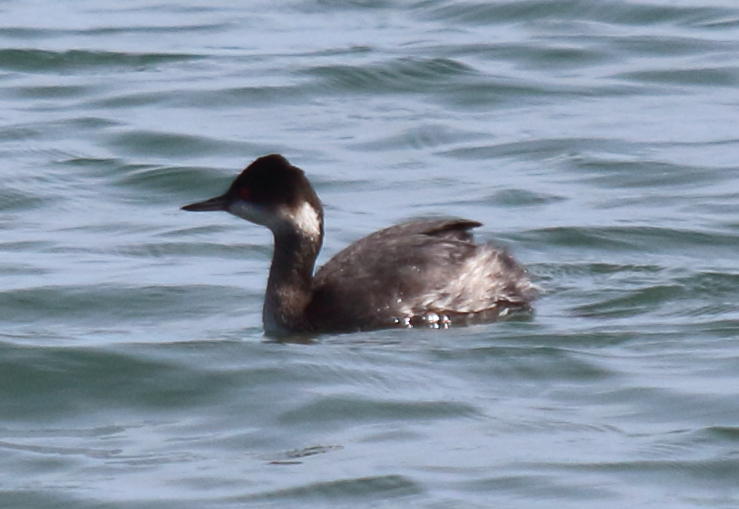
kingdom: Animalia
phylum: Chordata
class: Aves
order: Podicipediformes
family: Podicipedidae
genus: Podiceps
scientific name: Podiceps nigricollis
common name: Black-necked grebe
